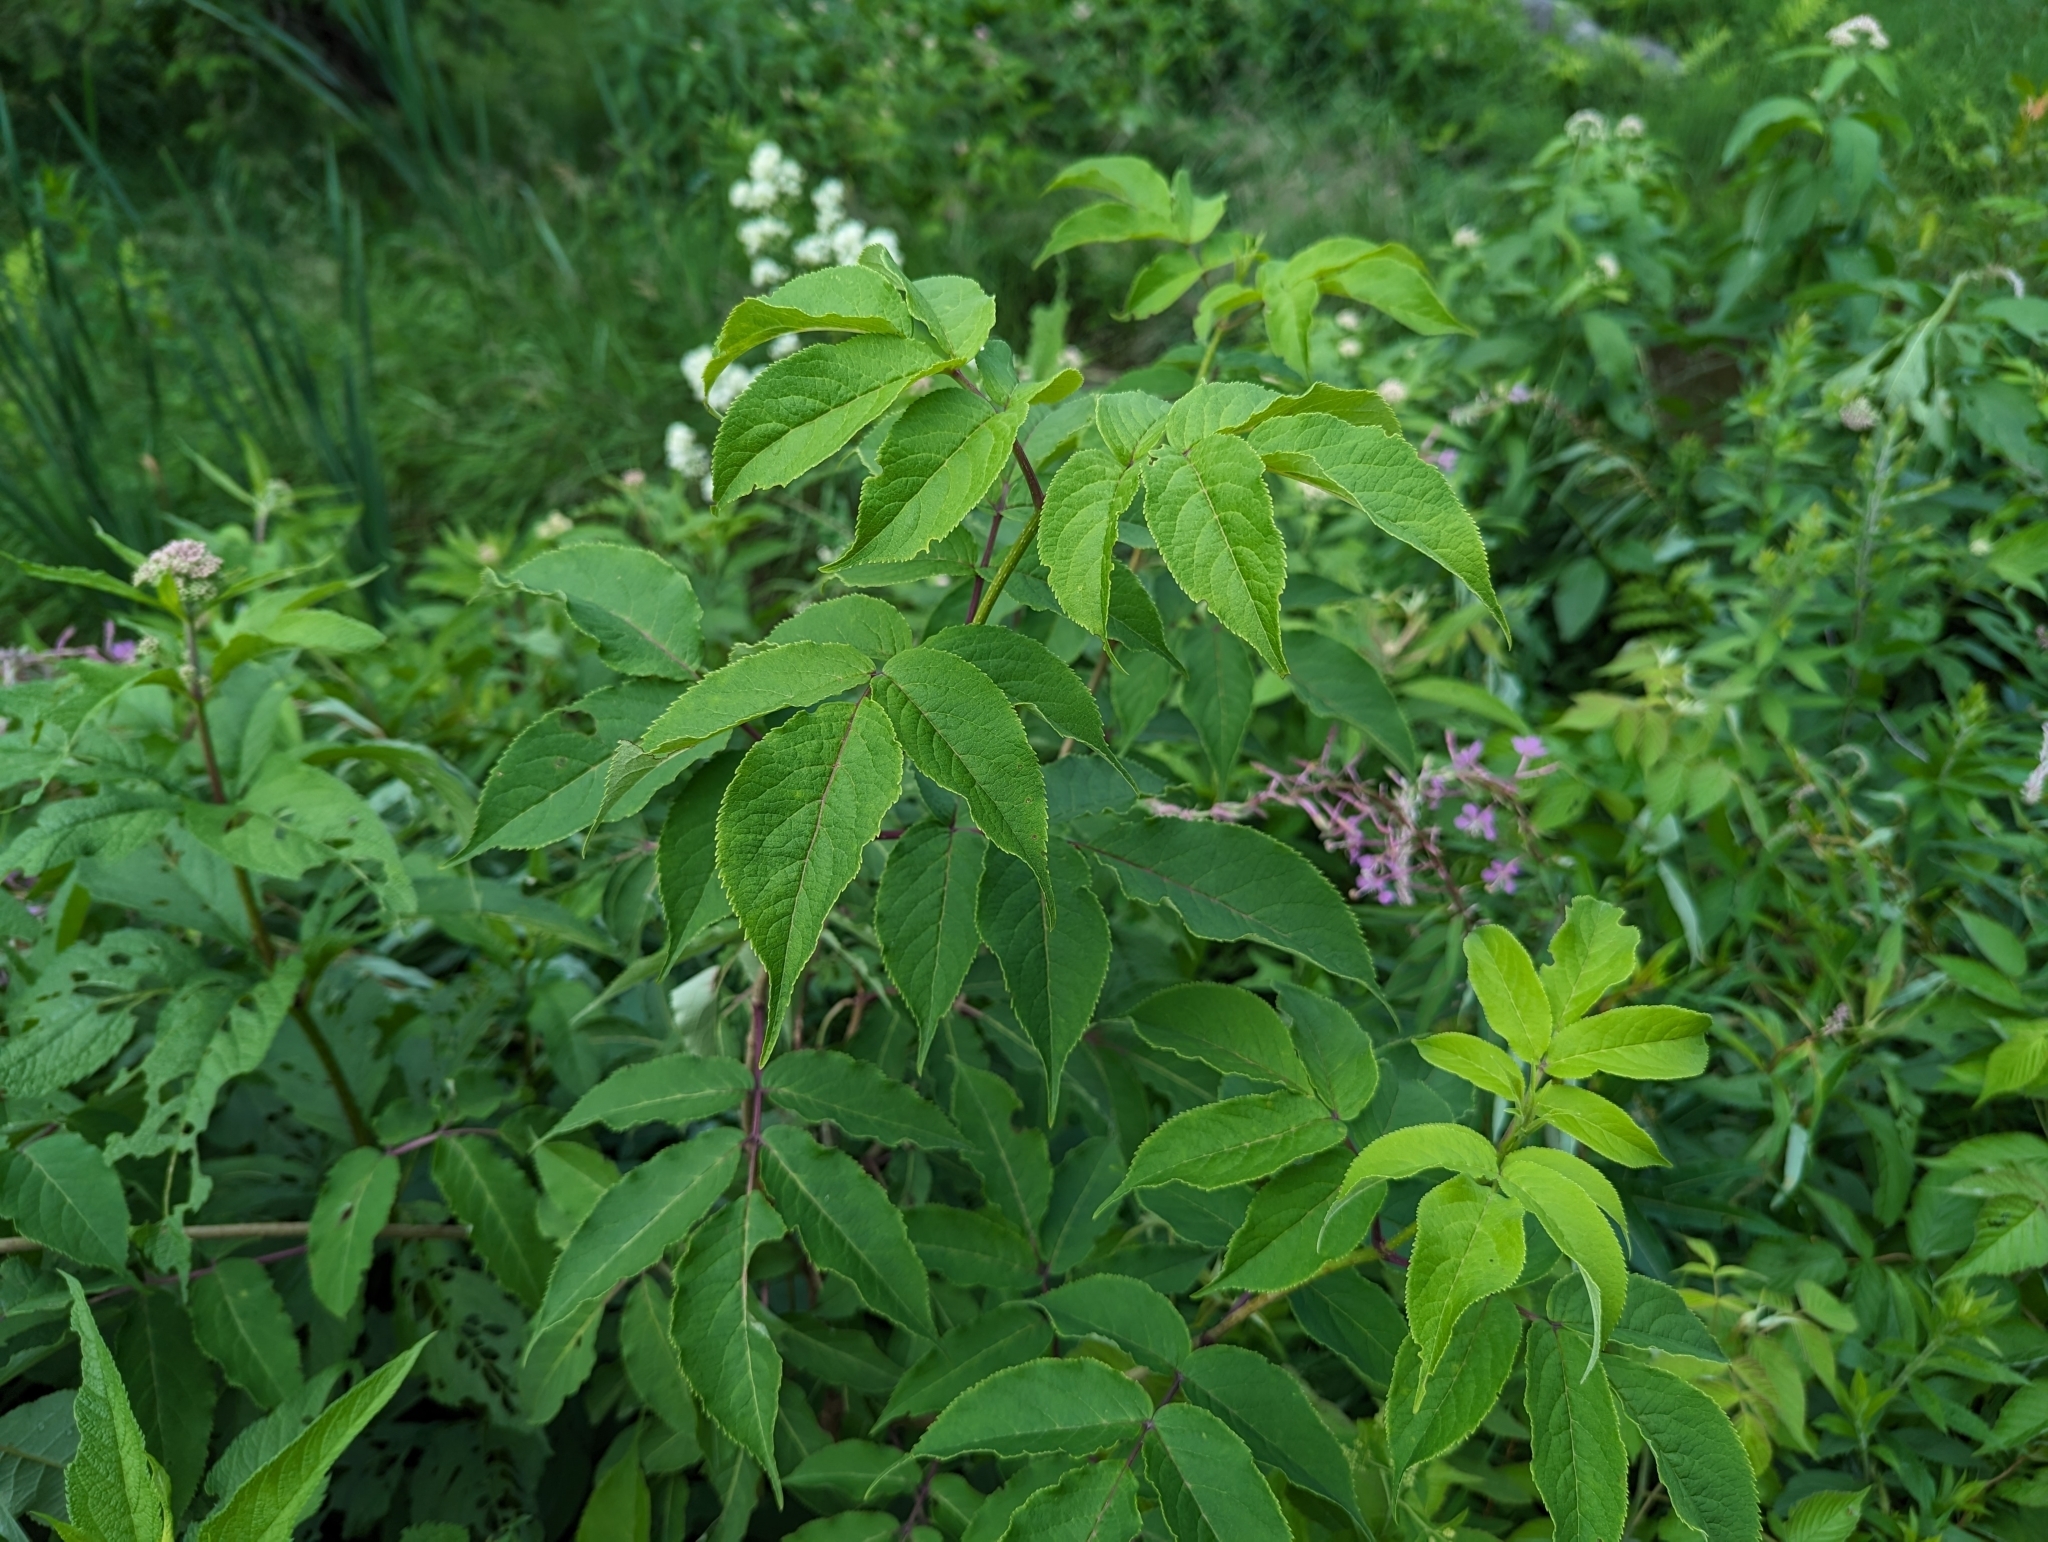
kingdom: Plantae
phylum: Tracheophyta
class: Magnoliopsida
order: Dipsacales
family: Viburnaceae
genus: Sambucus
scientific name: Sambucus racemosa
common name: Red-berried elder
